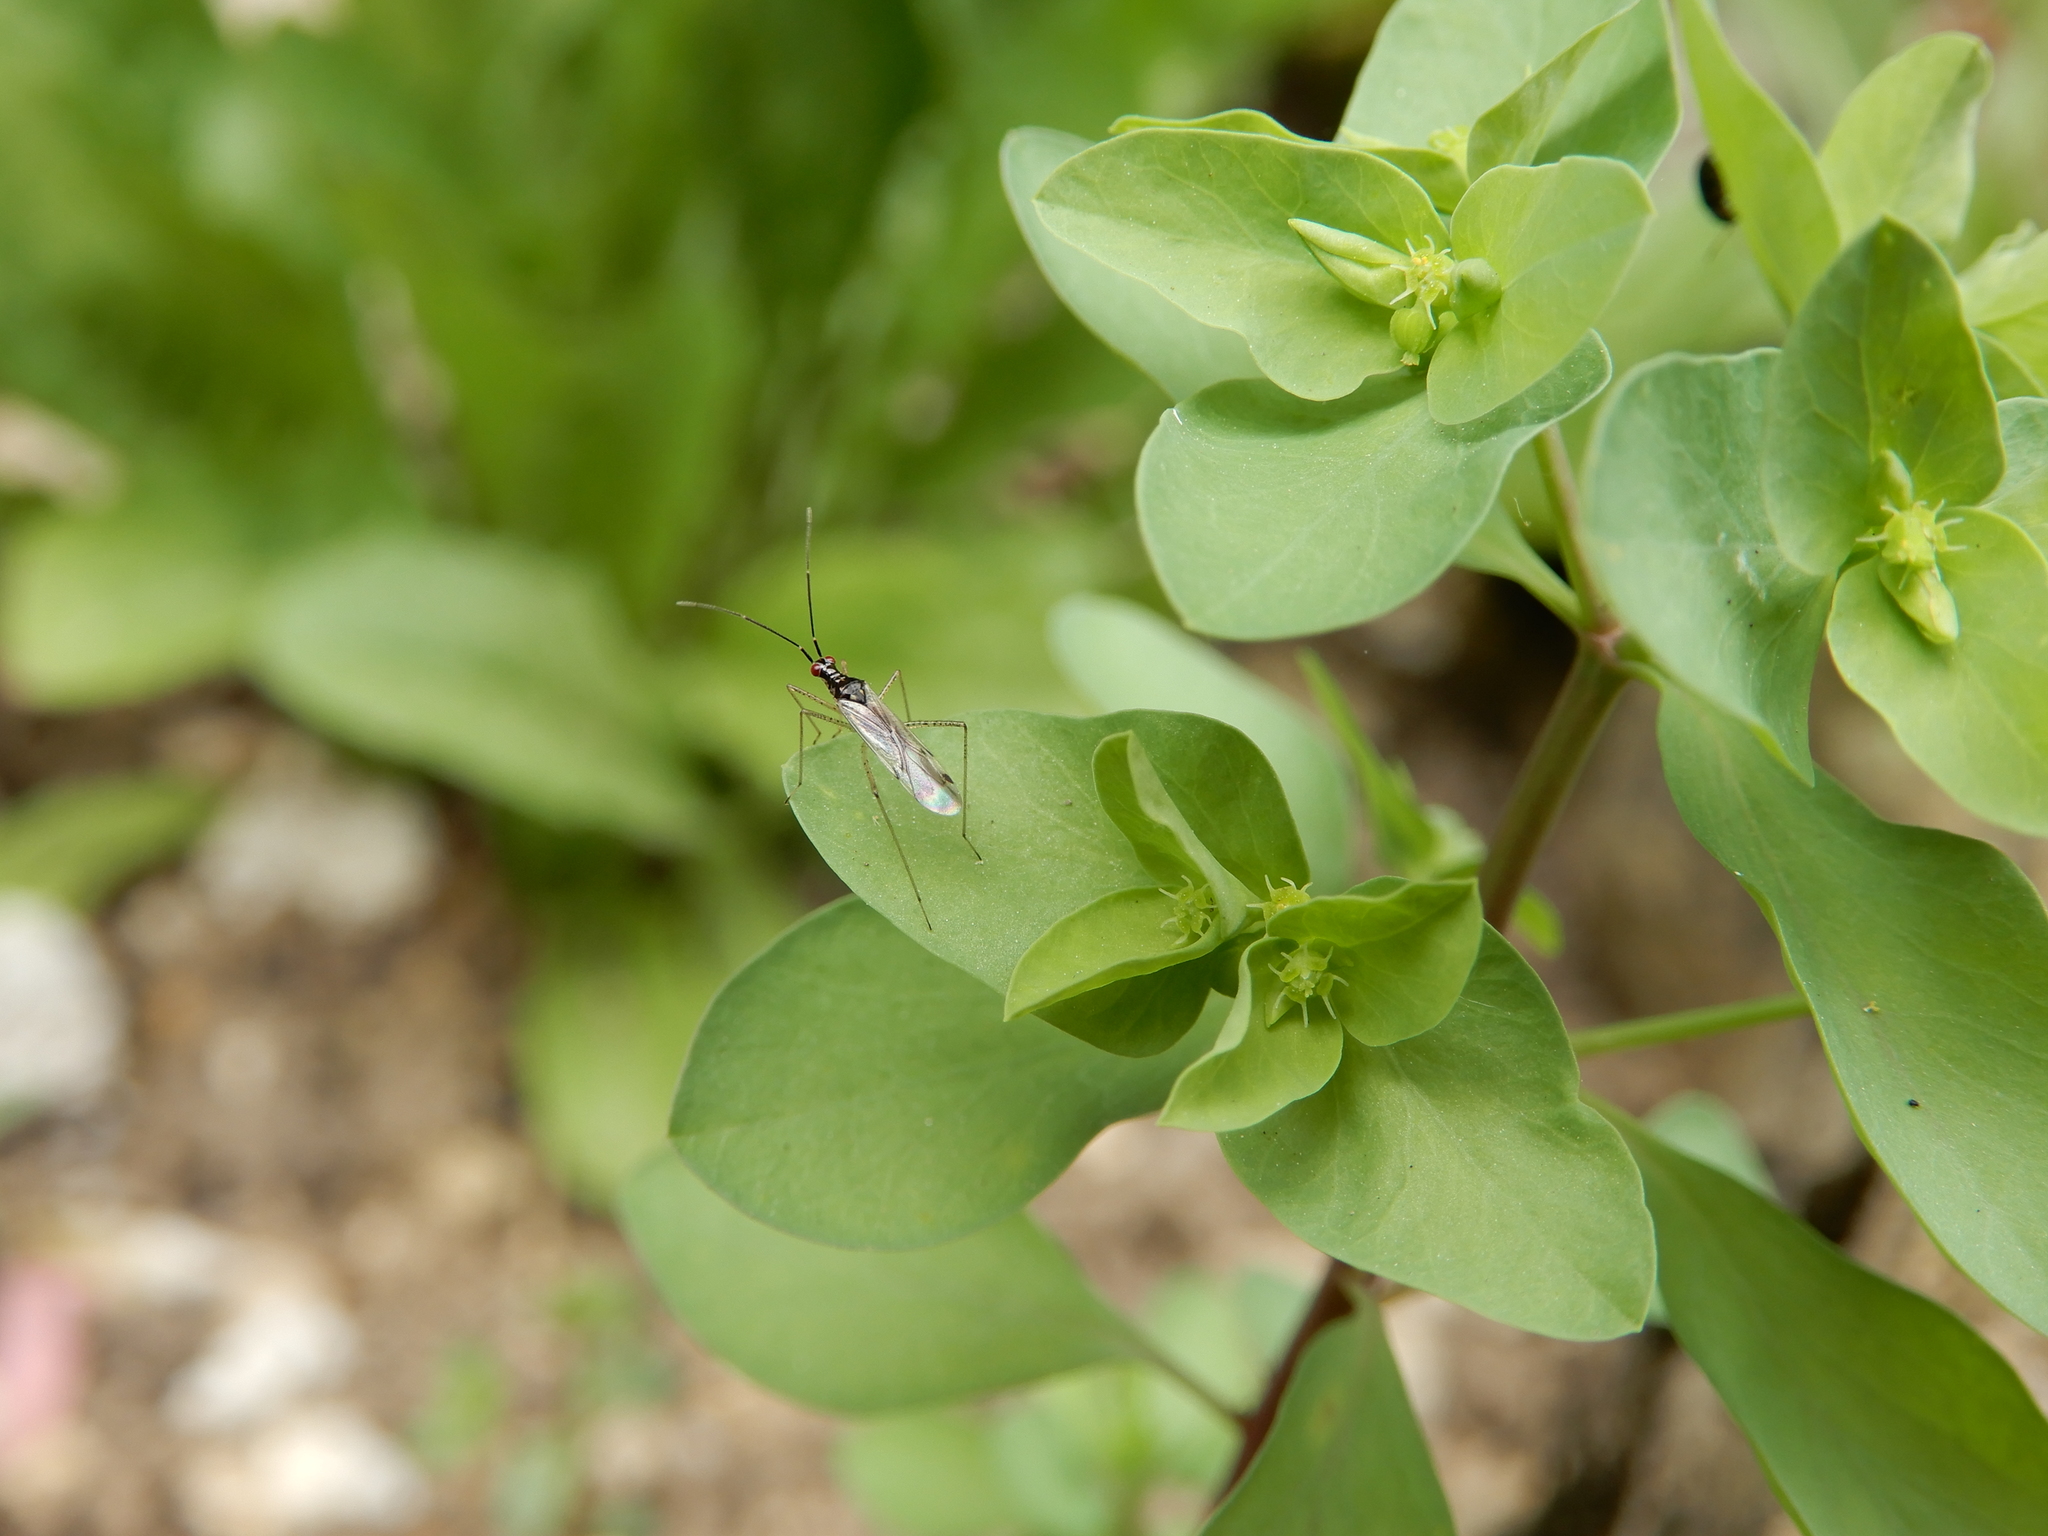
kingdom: Animalia
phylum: Arthropoda
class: Insecta
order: Hemiptera
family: Miridae
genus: Dicyphus
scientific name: Dicyphus errans
